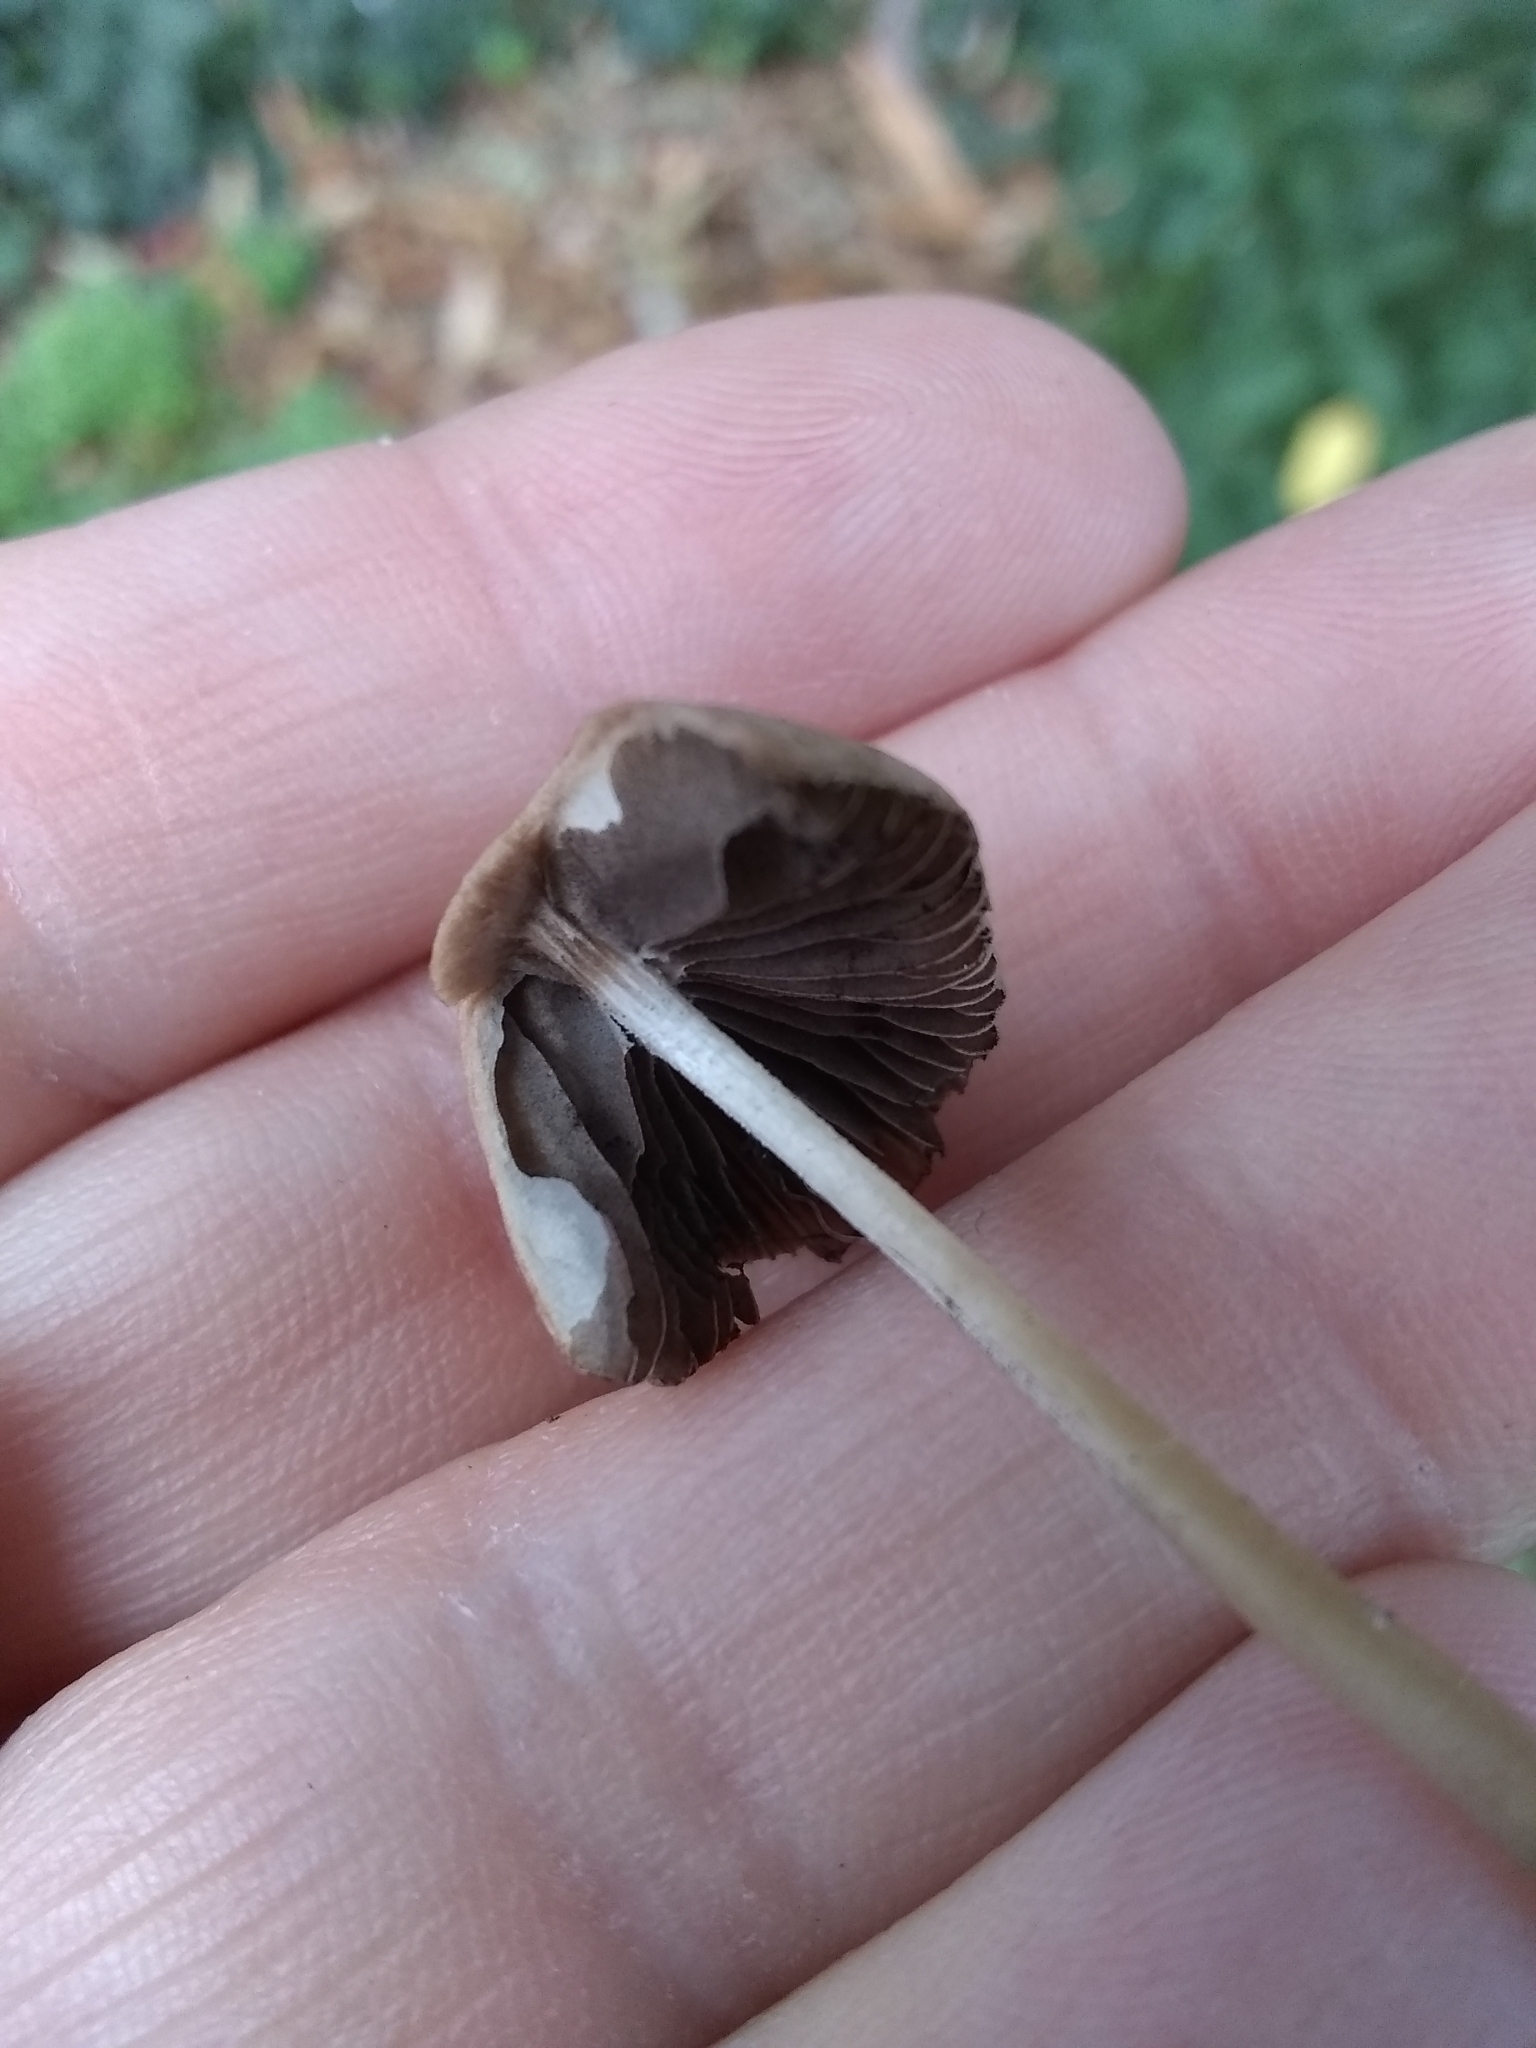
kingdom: Fungi
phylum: Basidiomycota
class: Agaricomycetes
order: Agaricales
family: Psathyrellaceae
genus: Psathyrella
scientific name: Psathyrella corrugis
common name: Red edge brittlestem
